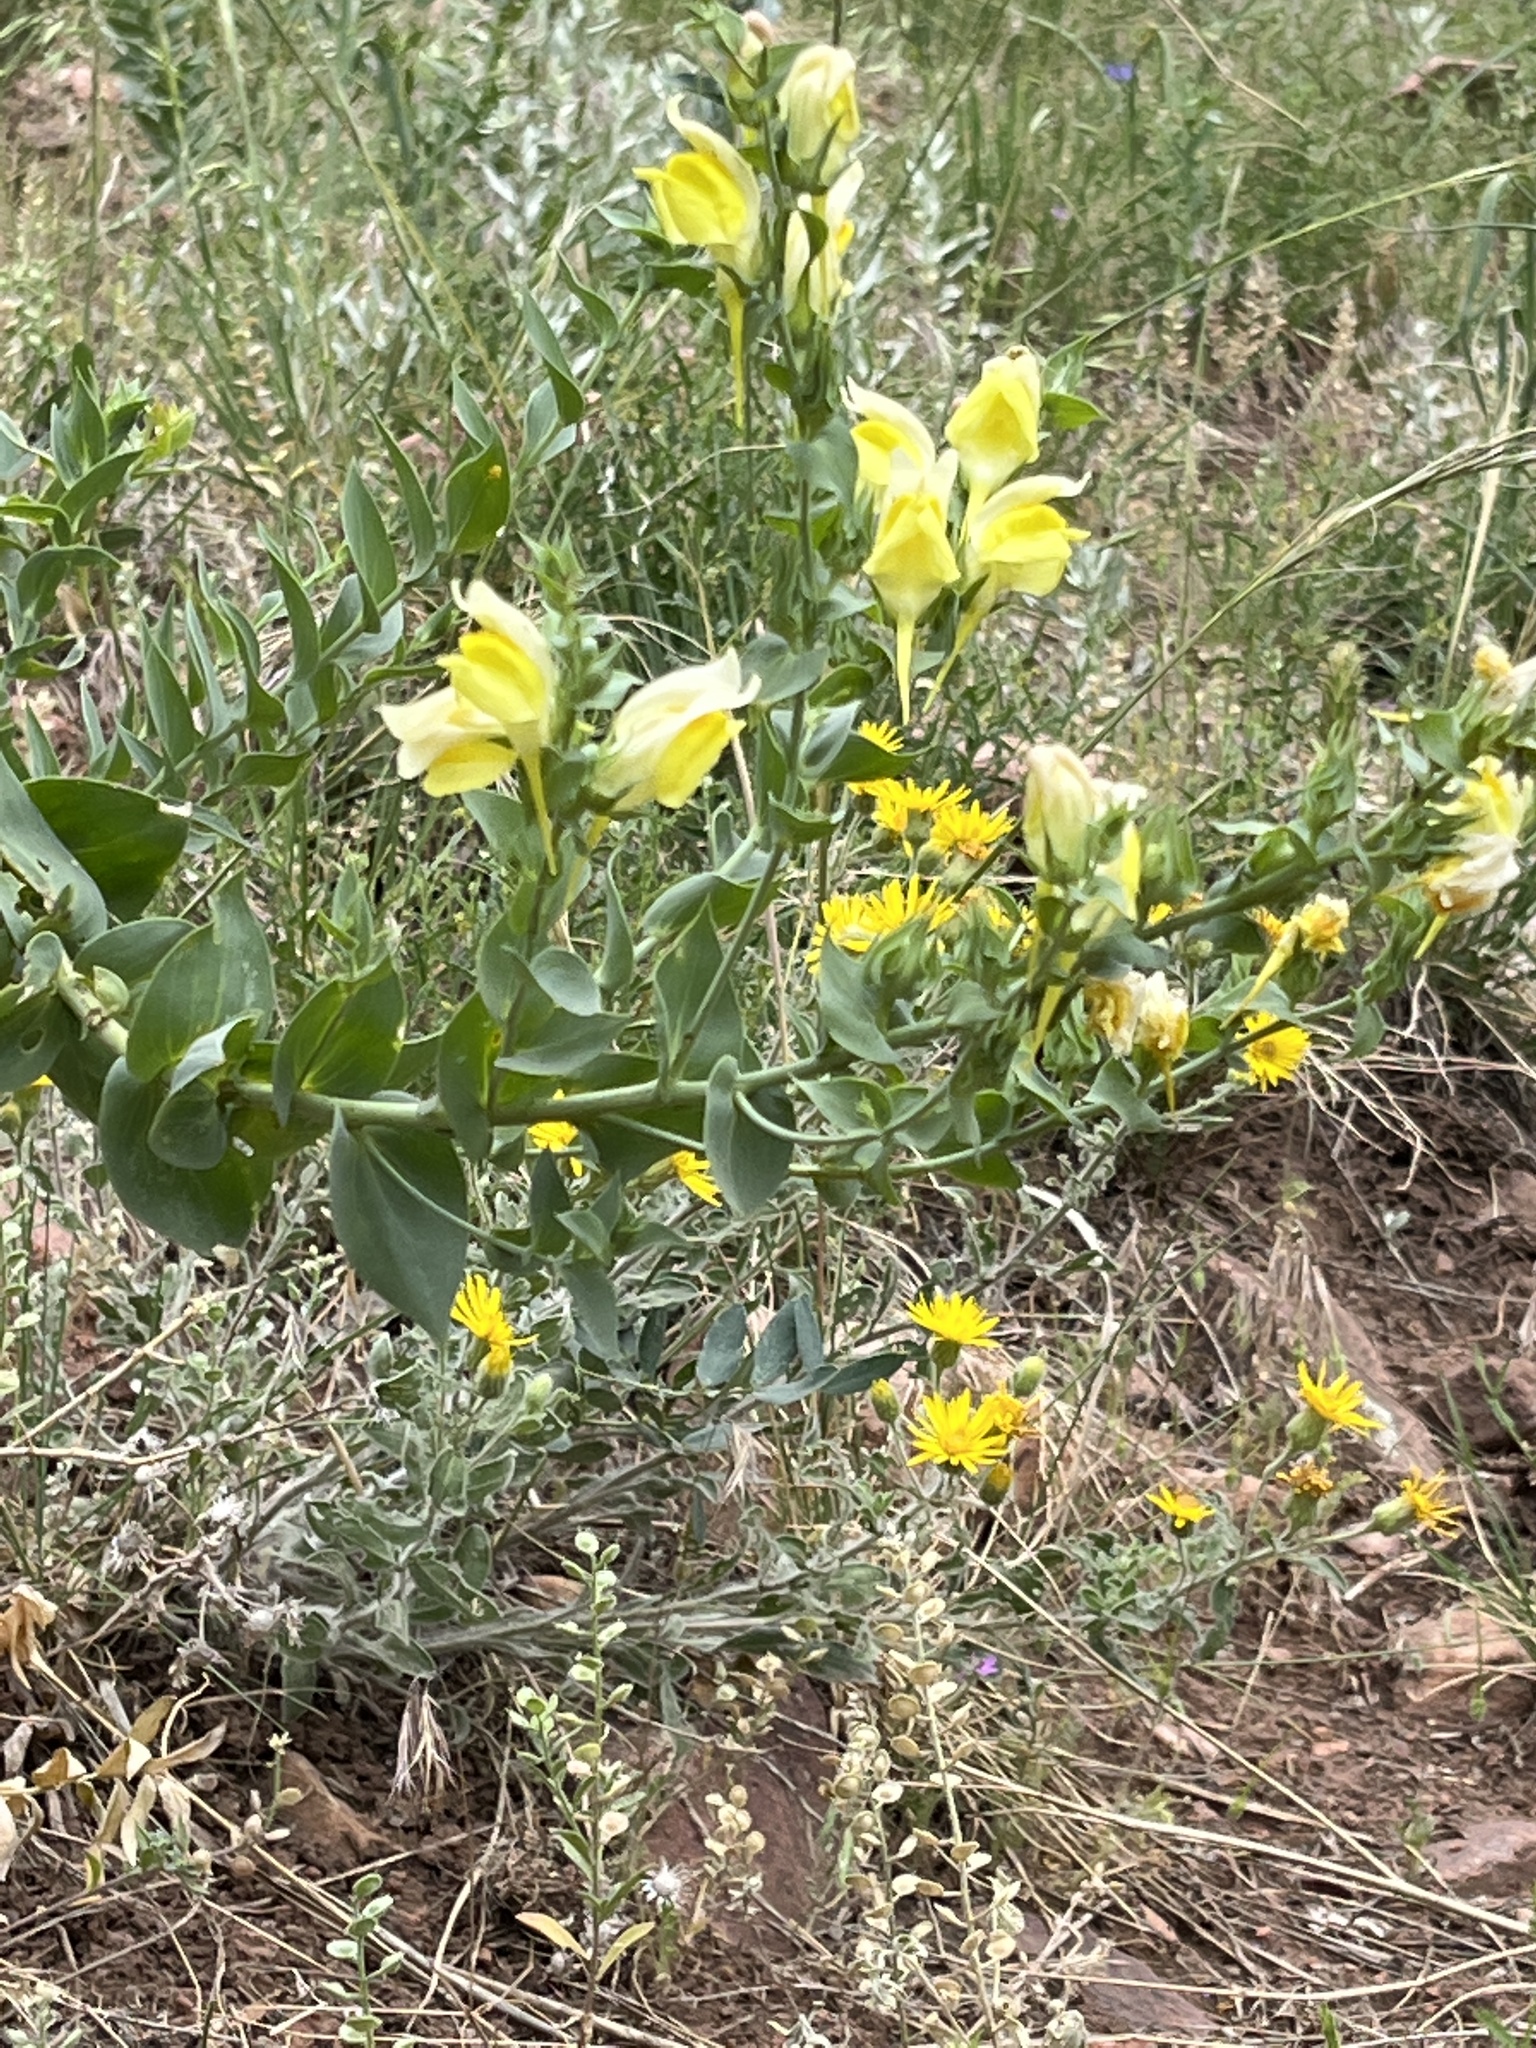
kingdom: Plantae
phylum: Tracheophyta
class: Magnoliopsida
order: Lamiales
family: Plantaginaceae
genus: Linaria
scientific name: Linaria dalmatica
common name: Dalmatian toadflax
